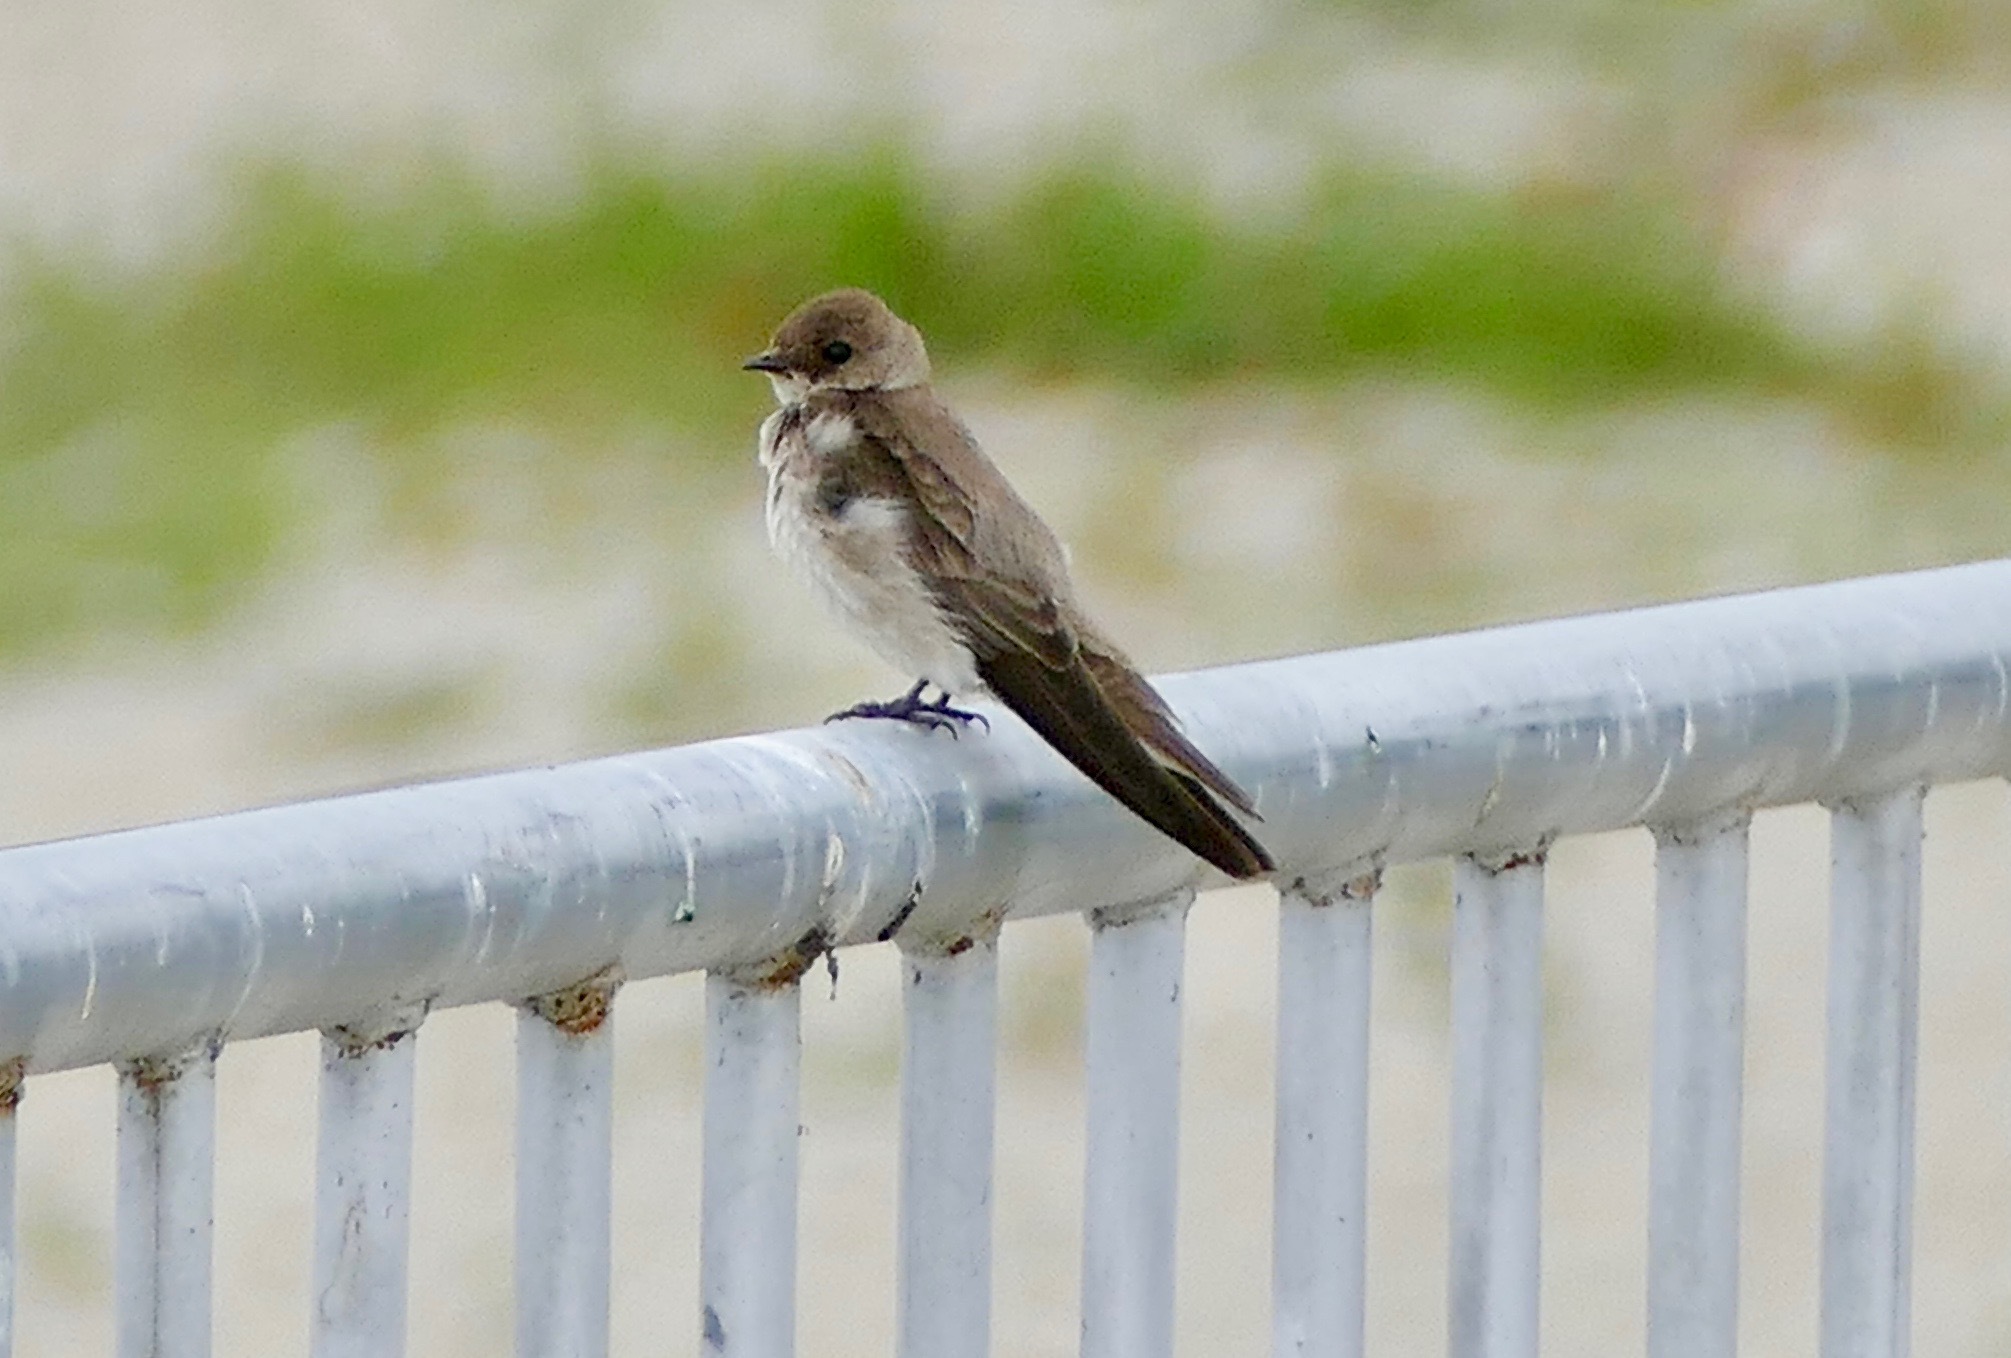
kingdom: Animalia
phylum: Chordata
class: Aves
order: Passeriformes
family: Hirundinidae
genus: Stelgidopteryx
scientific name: Stelgidopteryx serripennis
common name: Northern rough-winged swallow
